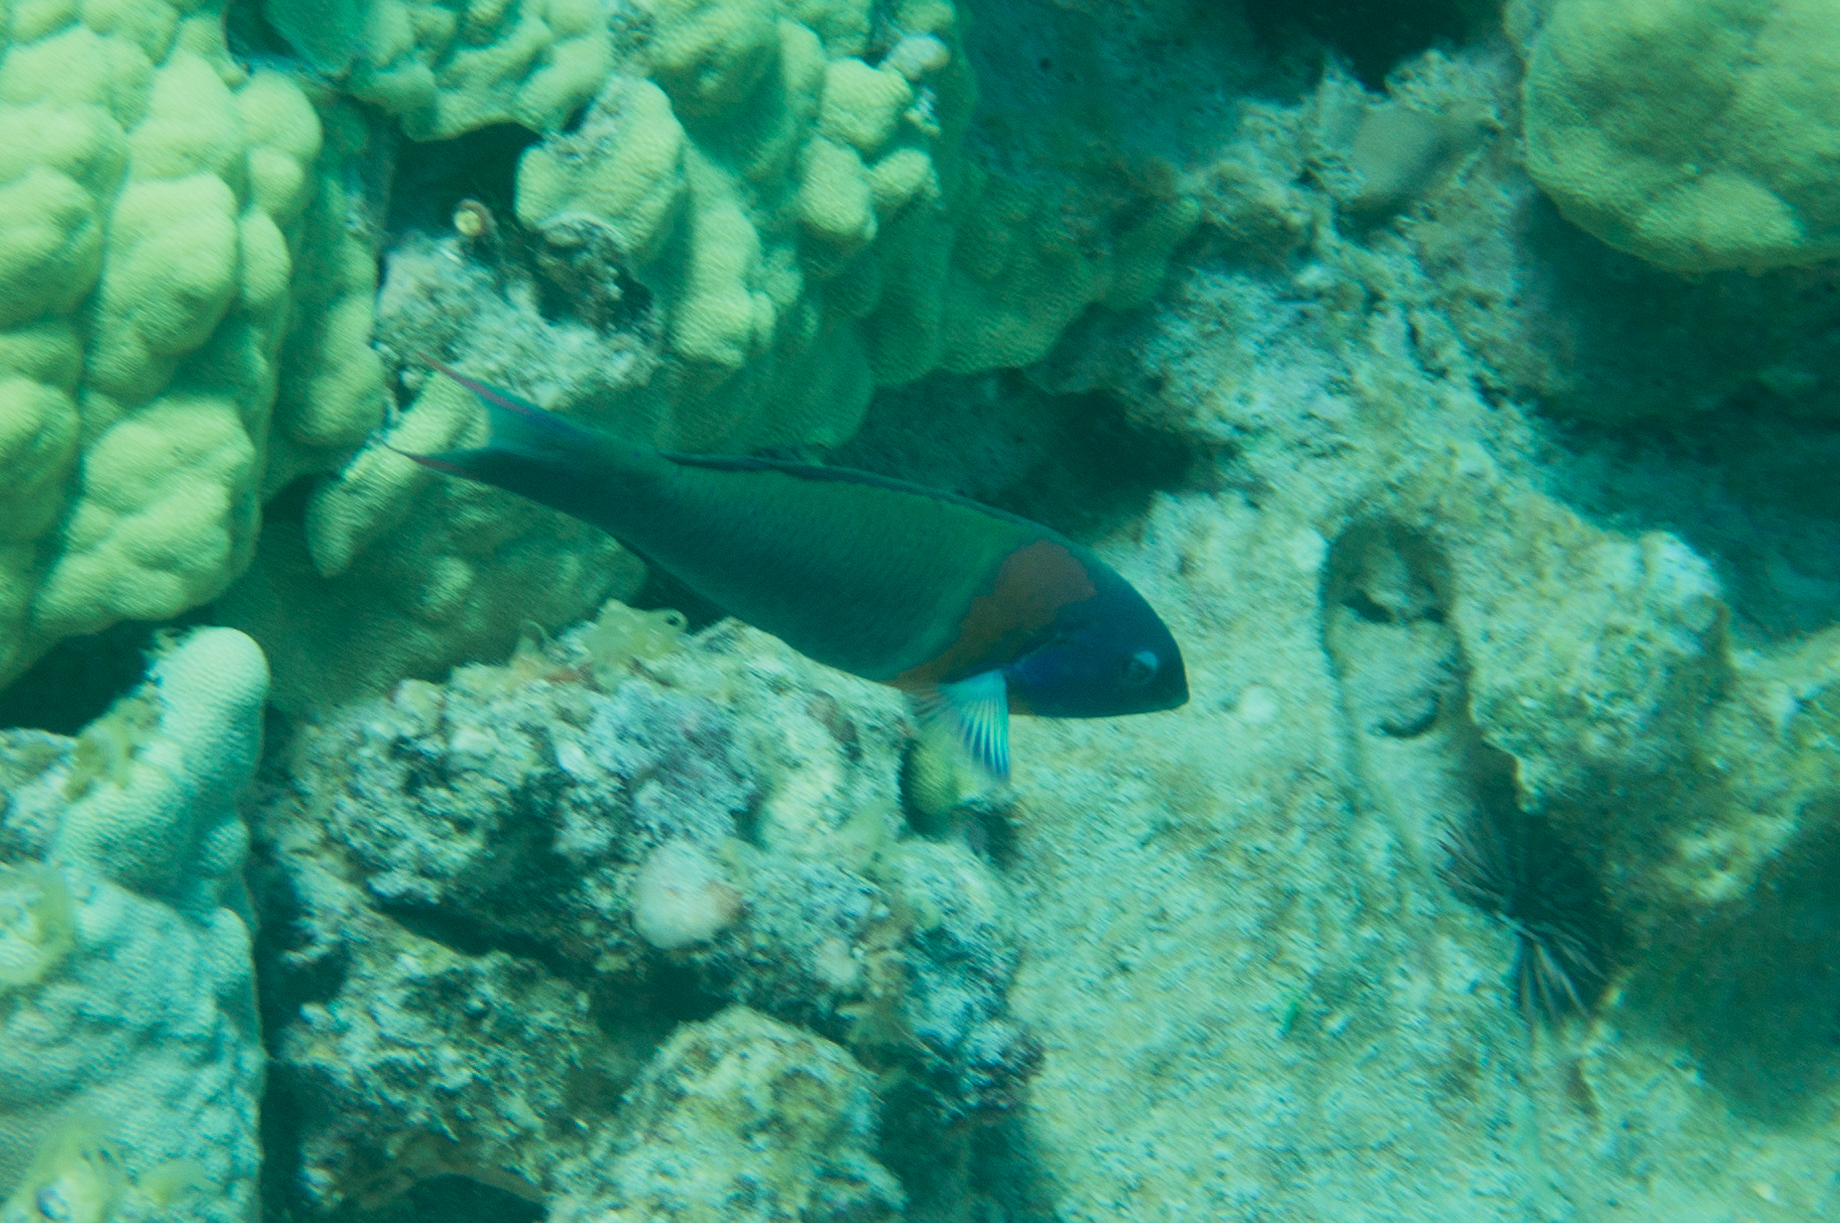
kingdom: Animalia
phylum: Chordata
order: Perciformes
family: Labridae
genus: Thalassoma
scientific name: Thalassoma duperrey
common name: Saddle wrasse
